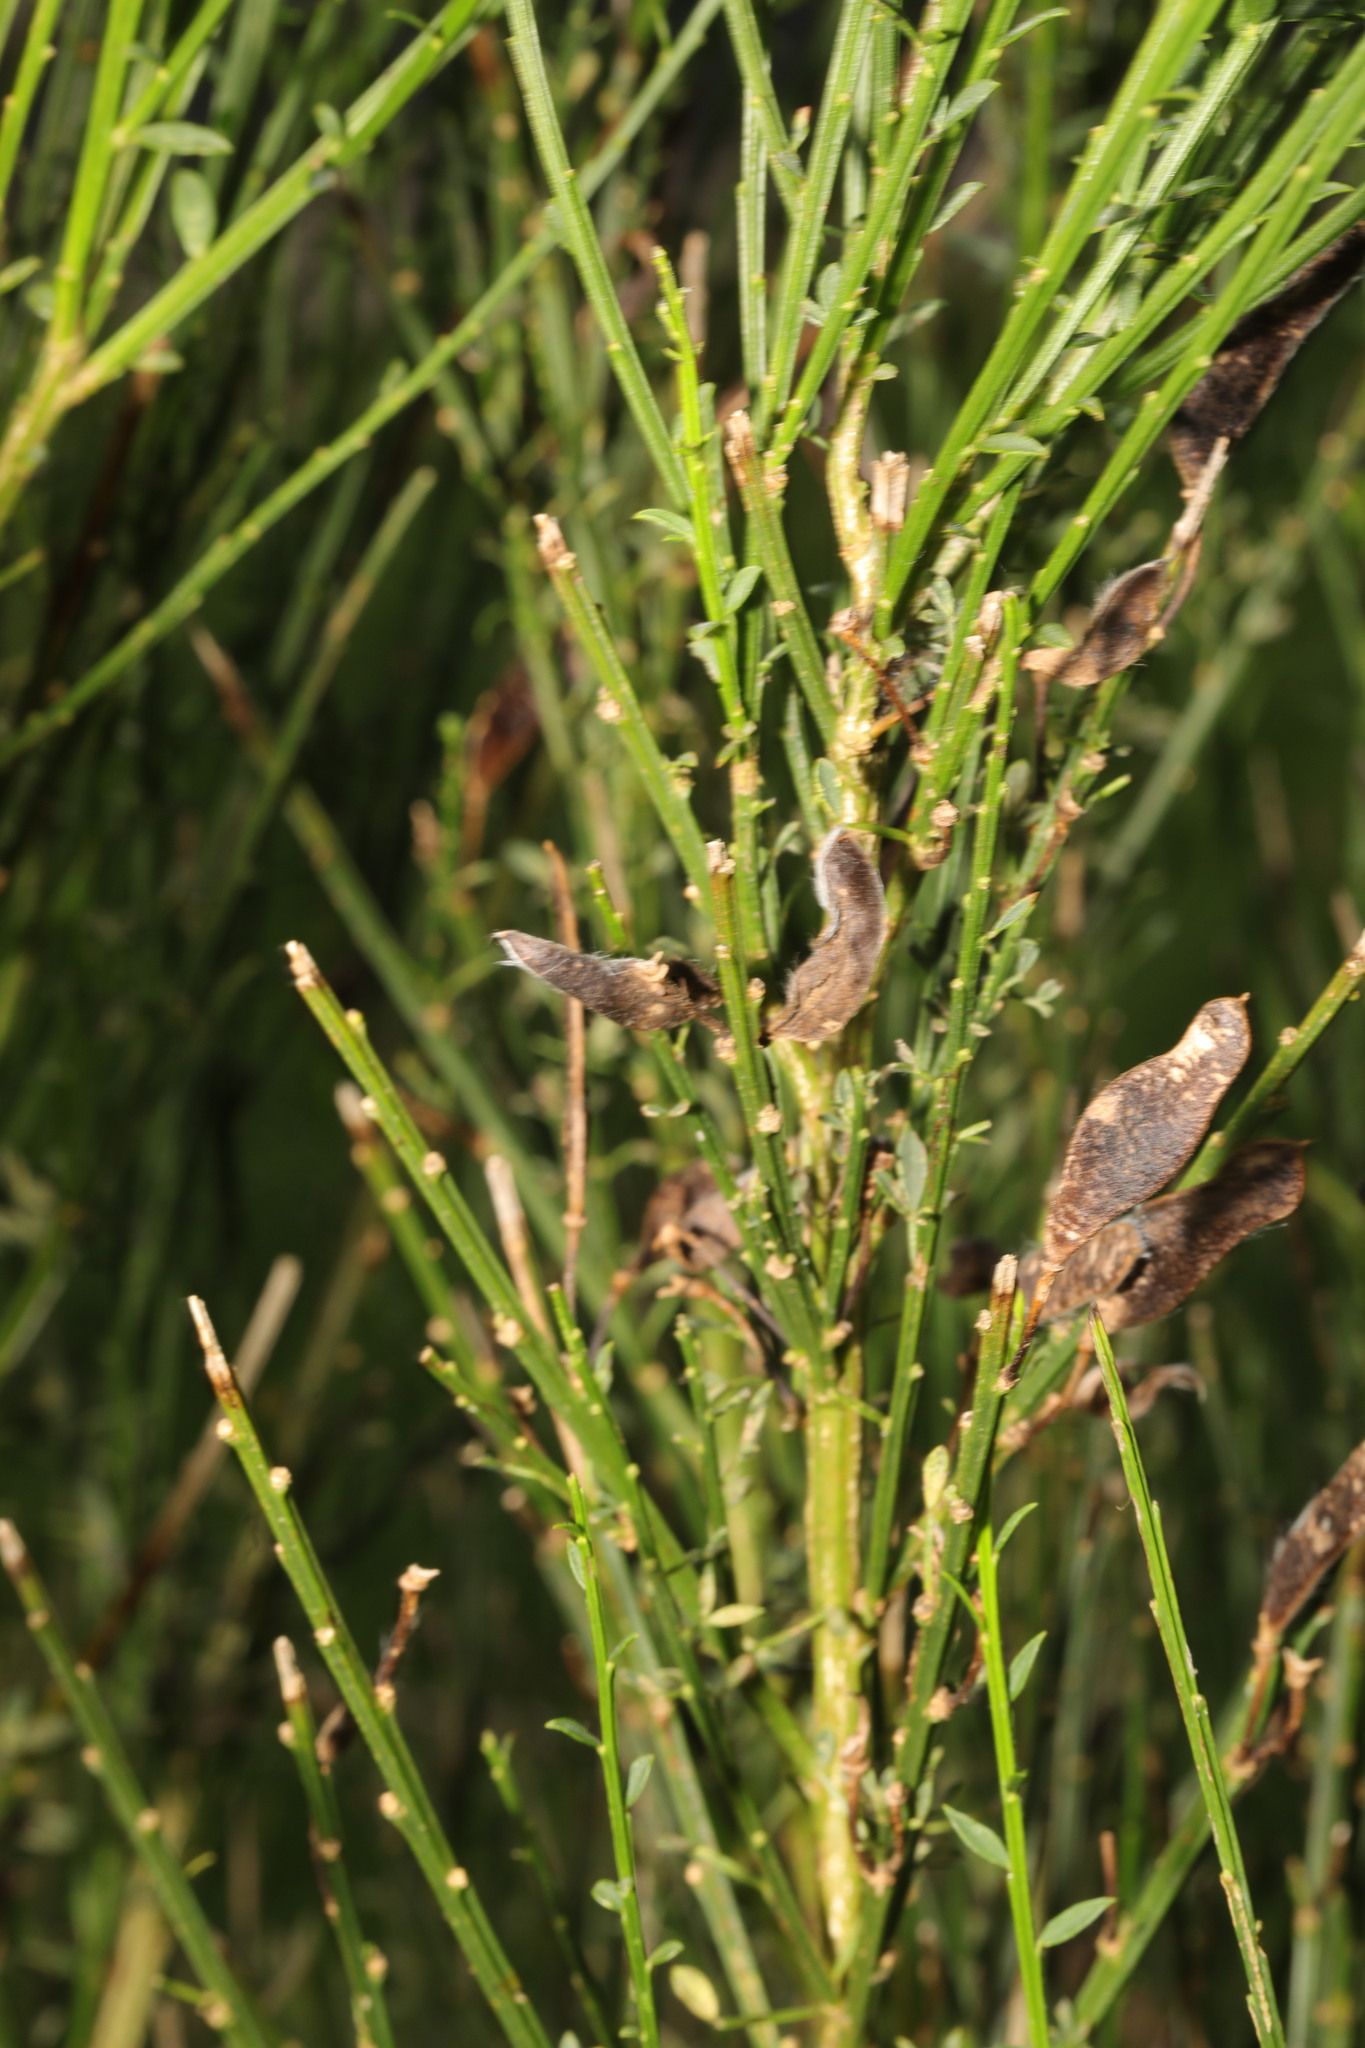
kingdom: Plantae
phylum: Tracheophyta
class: Magnoliopsida
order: Fabales
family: Fabaceae
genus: Cytisus
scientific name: Cytisus scoparius
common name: Scotch broom
